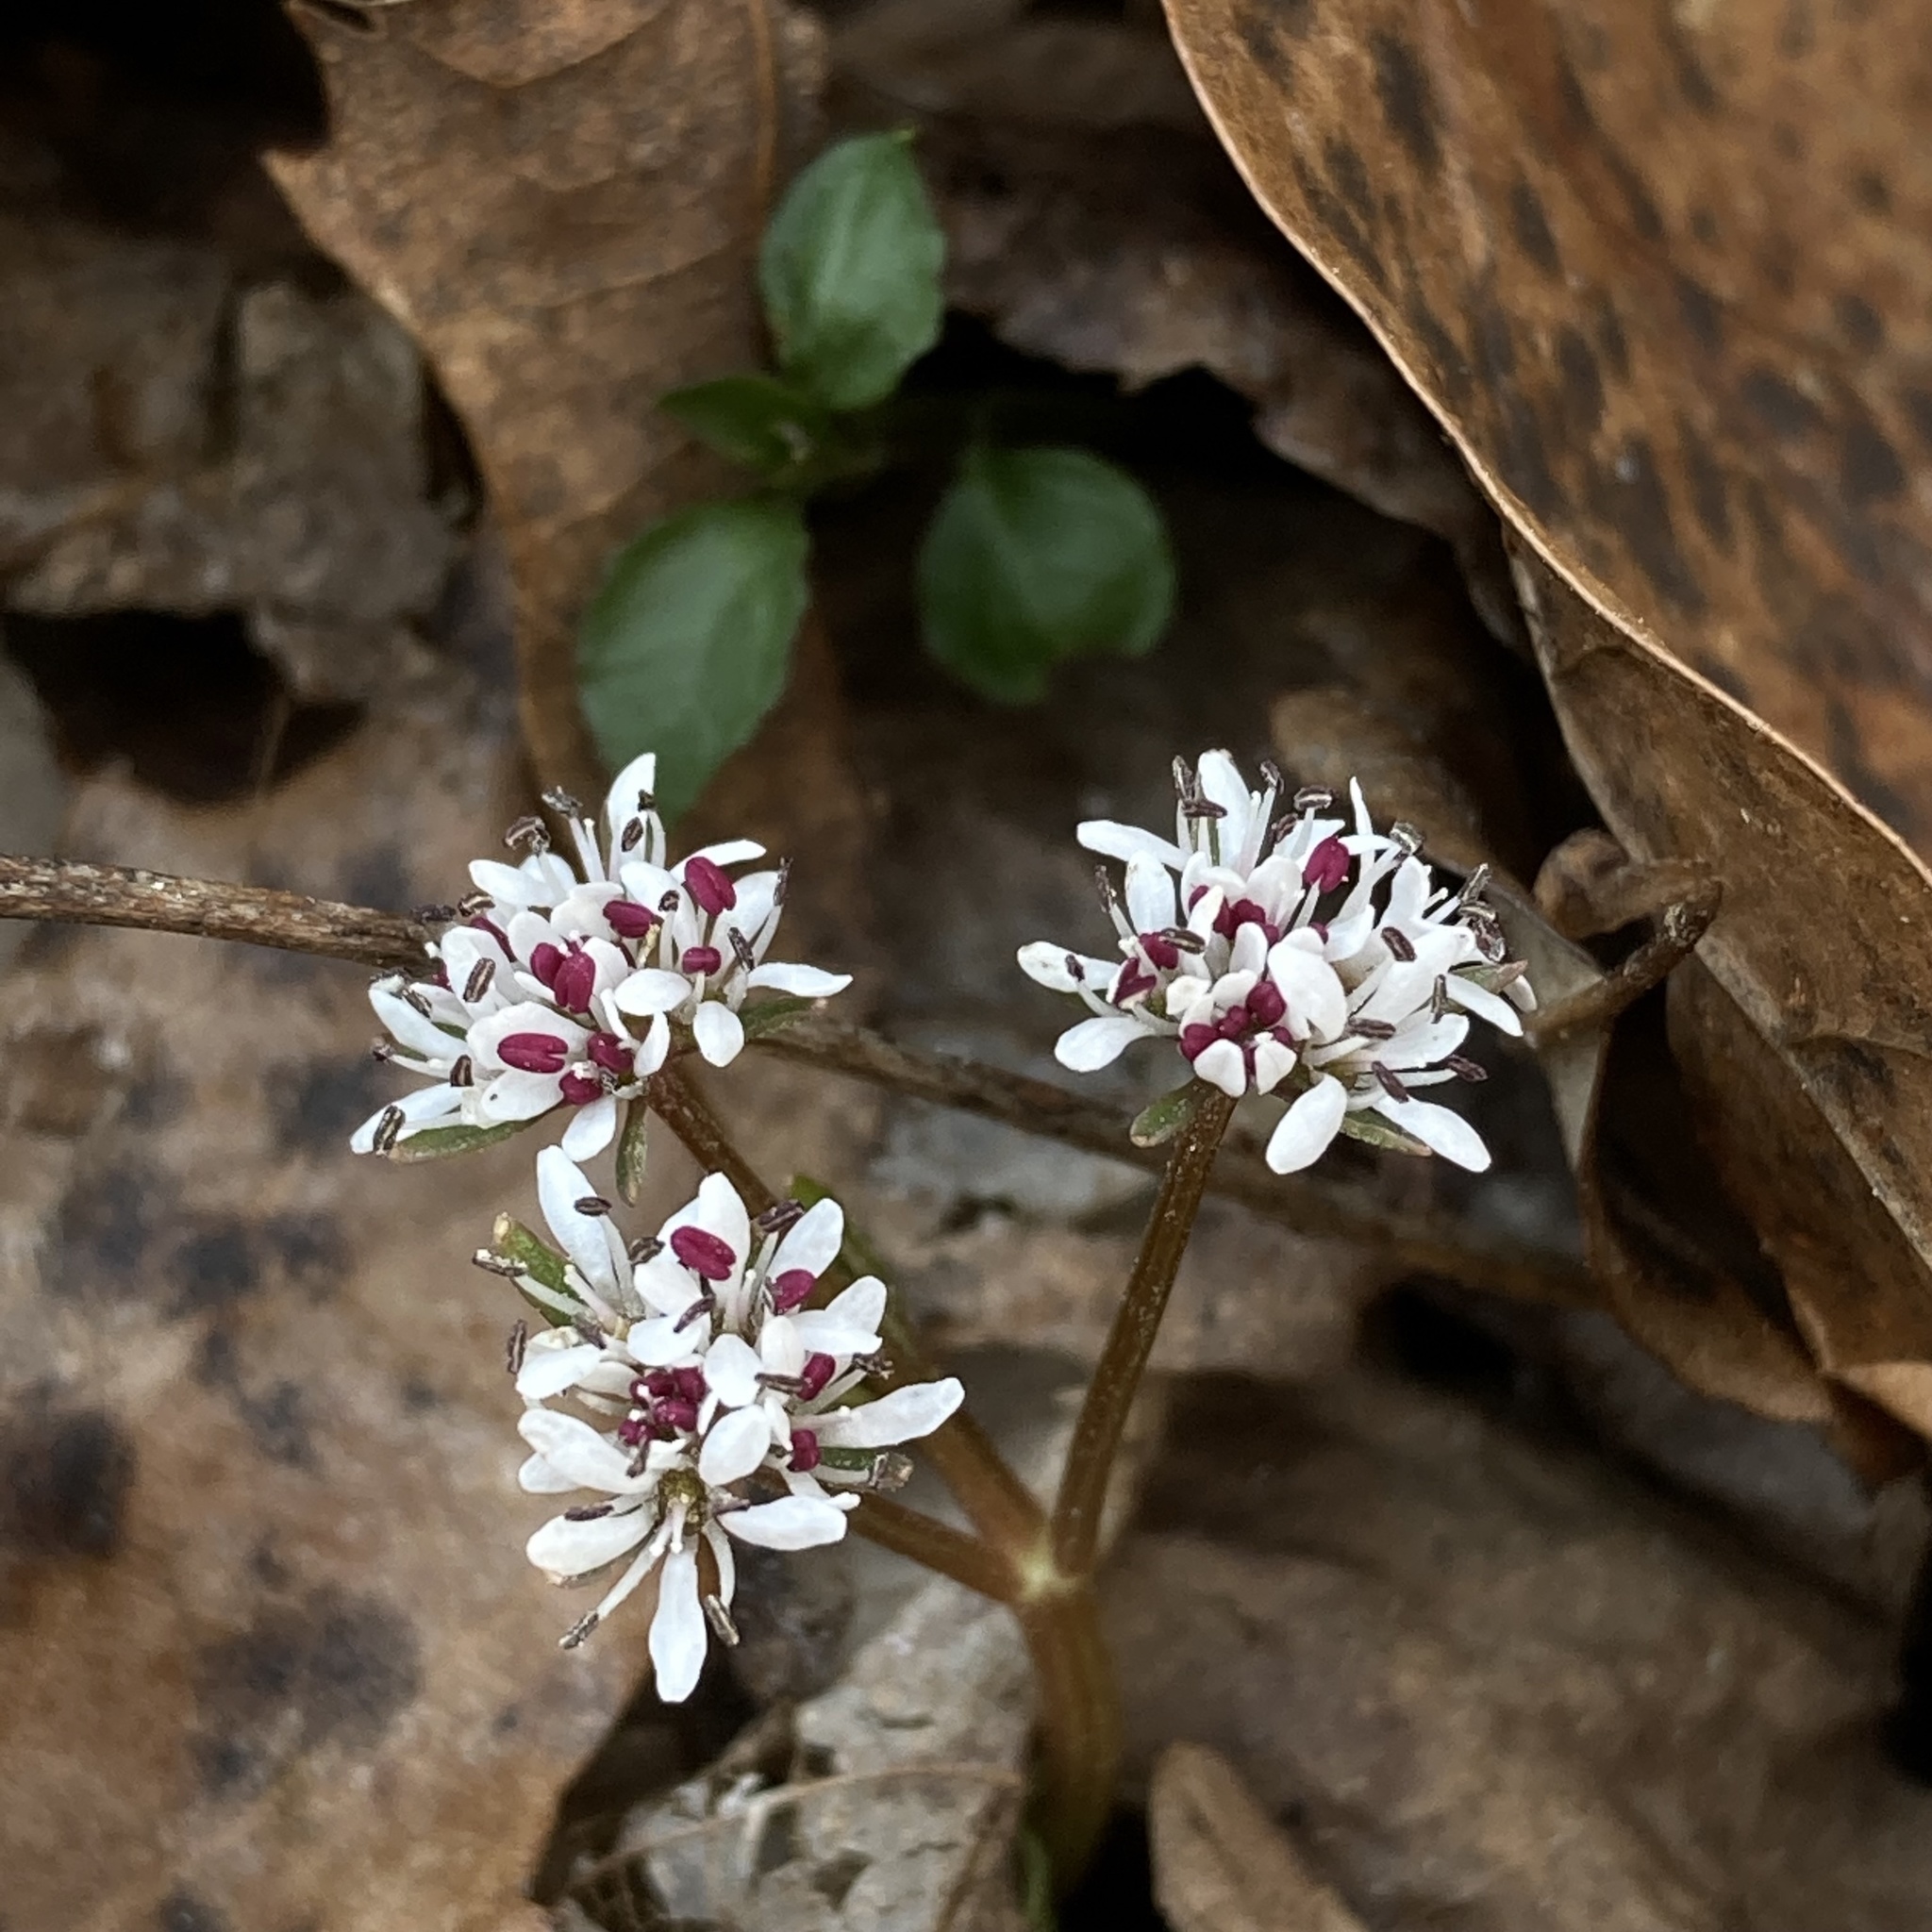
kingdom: Plantae
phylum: Tracheophyta
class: Magnoliopsida
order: Apiales
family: Apiaceae
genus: Erigenia
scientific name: Erigenia bulbosa
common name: Pepper-and-salt
